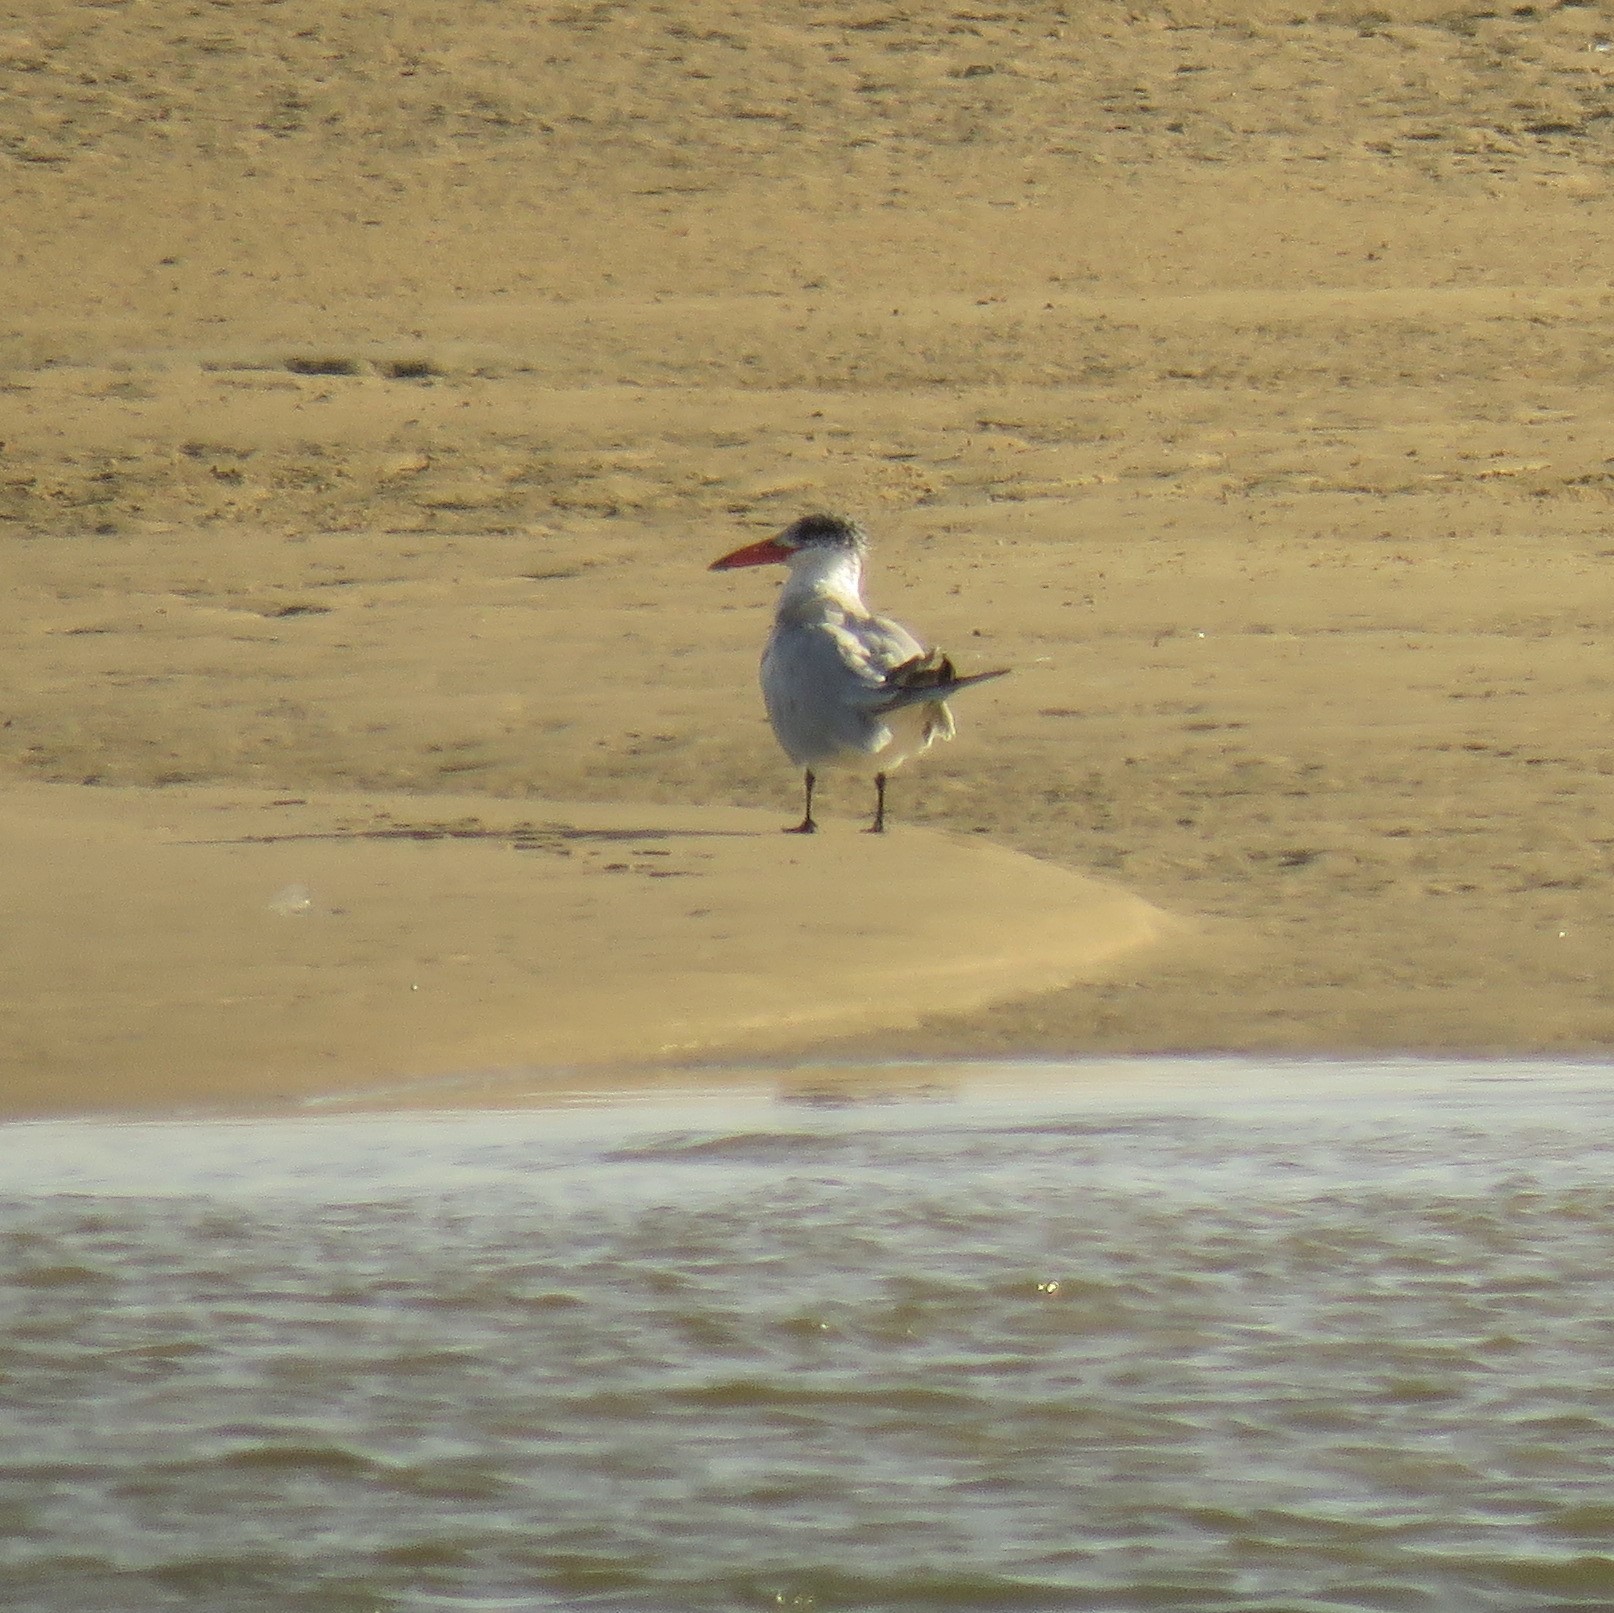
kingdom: Animalia
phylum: Chordata
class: Aves
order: Charadriiformes
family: Laridae
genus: Hydroprogne
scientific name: Hydroprogne caspia
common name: Caspian tern
